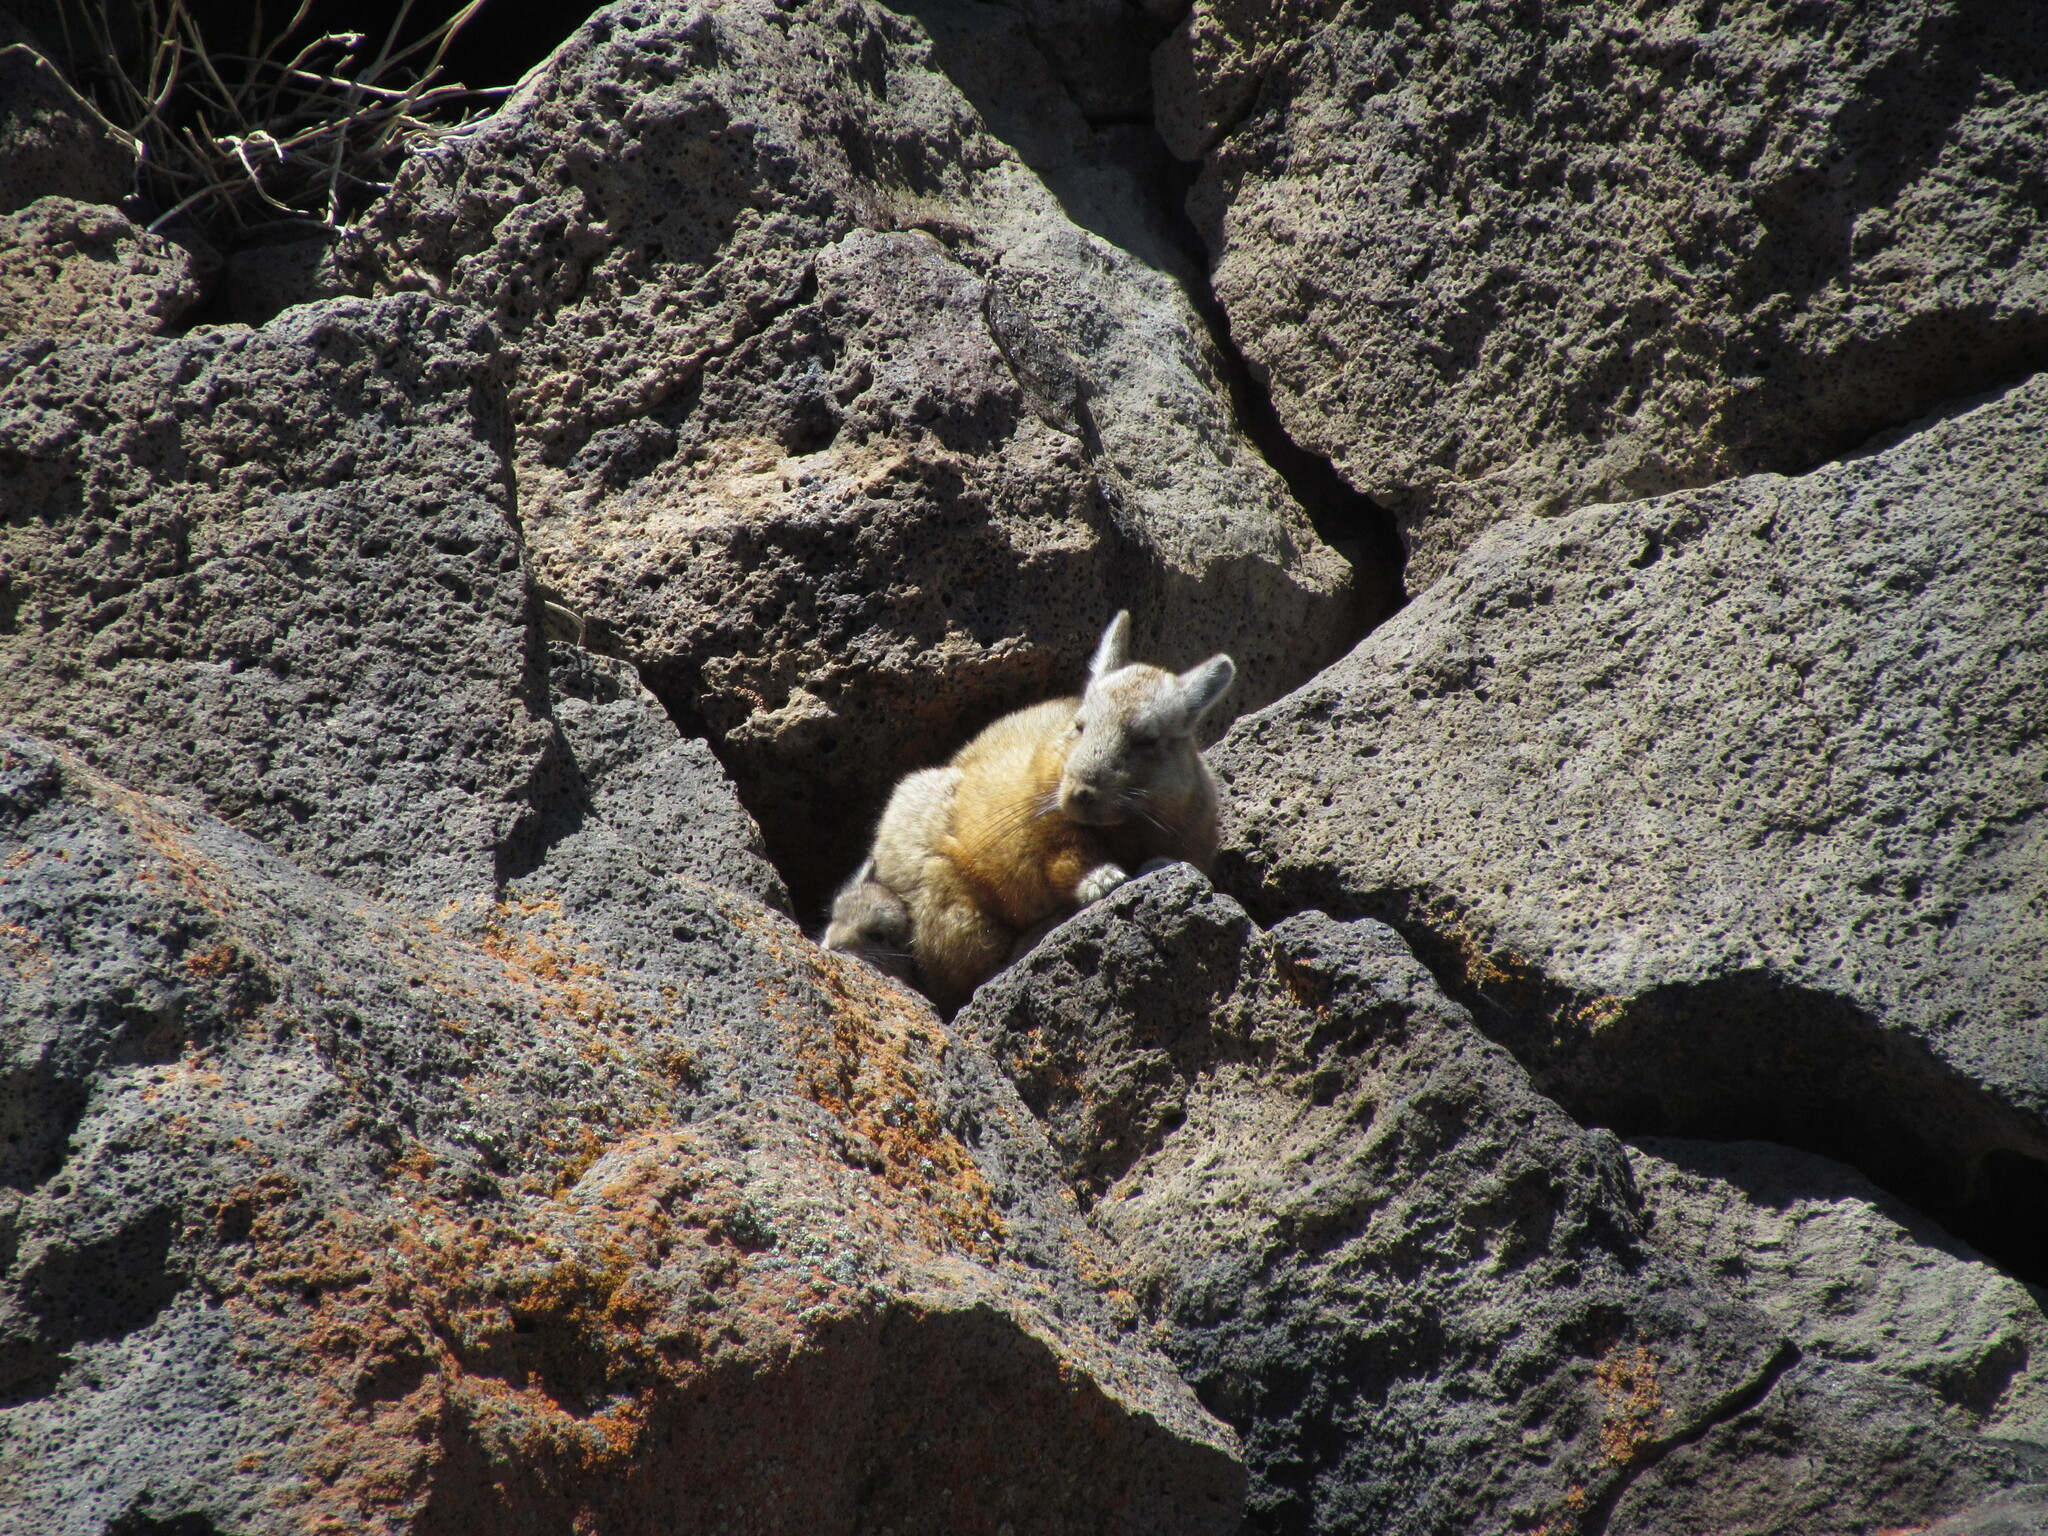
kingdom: Animalia
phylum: Chordata
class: Mammalia
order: Rodentia
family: Chinchillidae
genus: Lagidium
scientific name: Lagidium wolffsohni
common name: Wolffsohn's viscacha
